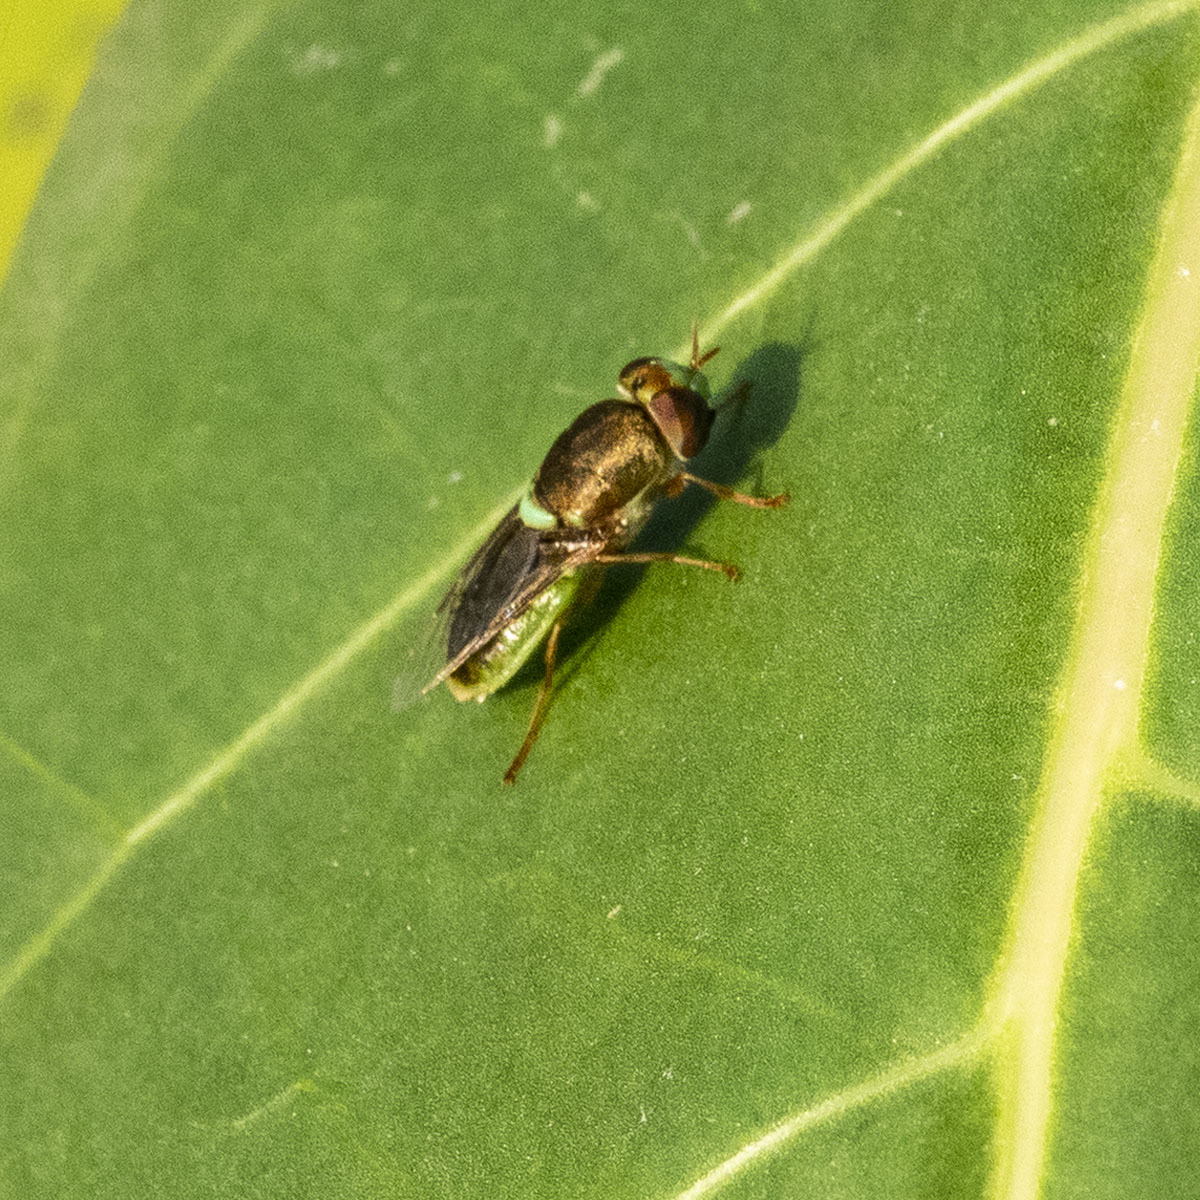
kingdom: Animalia
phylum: Arthropoda
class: Insecta
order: Diptera
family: Stratiomyidae
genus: Odontomyia
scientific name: Odontomyia viridana
